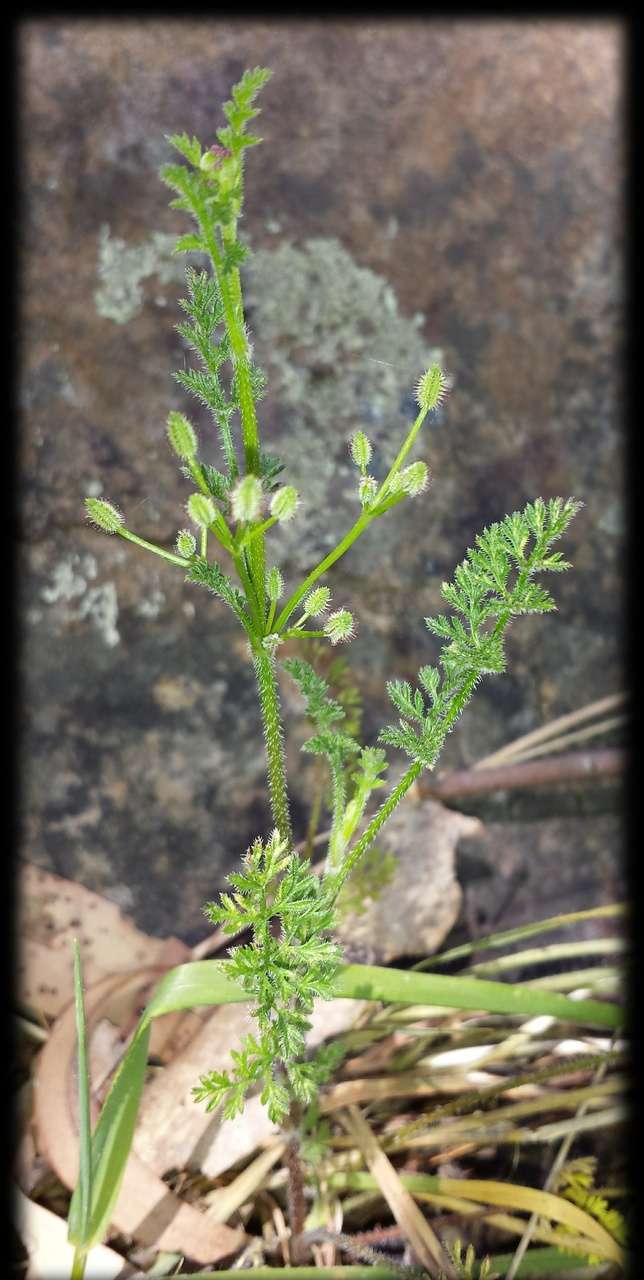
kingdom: Plantae
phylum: Tracheophyta
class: Magnoliopsida
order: Apiales
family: Apiaceae
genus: Daucus
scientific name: Daucus glochidiatus
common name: Australian carrot
